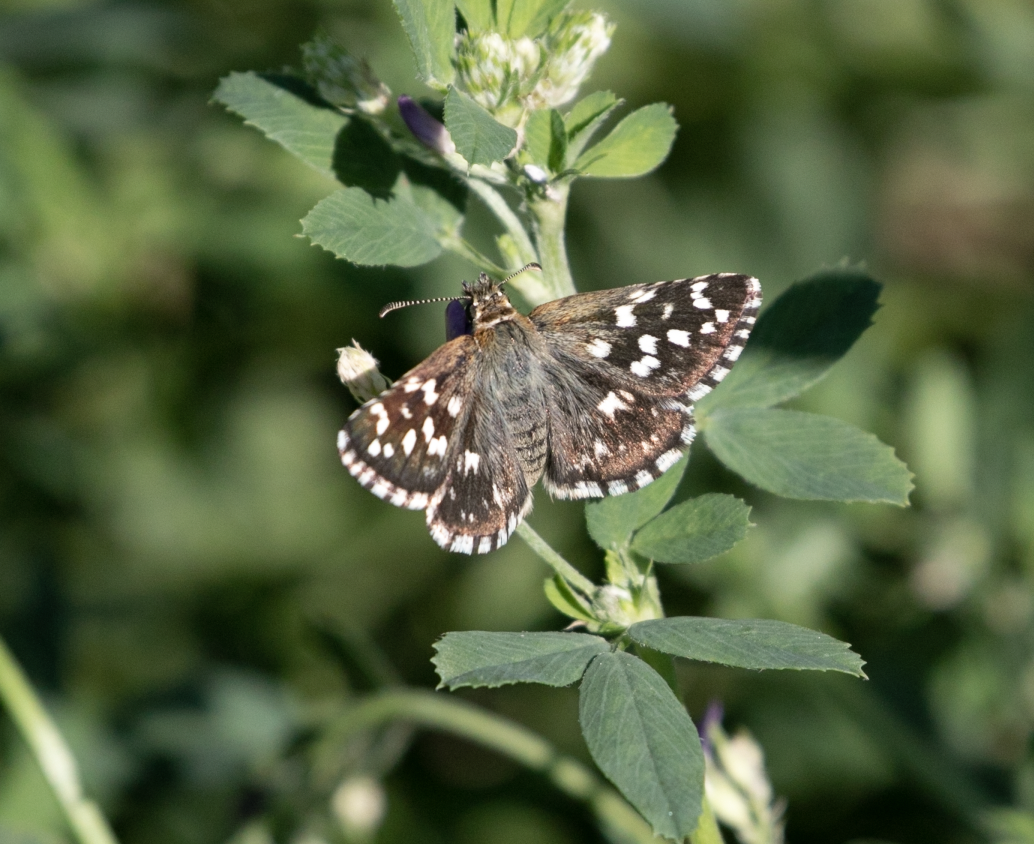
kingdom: Animalia
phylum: Arthropoda
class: Insecta
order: Lepidoptera
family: Hesperiidae
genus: Pyrgus
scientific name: Pyrgus malvoides
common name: Southern grizzled skipper
